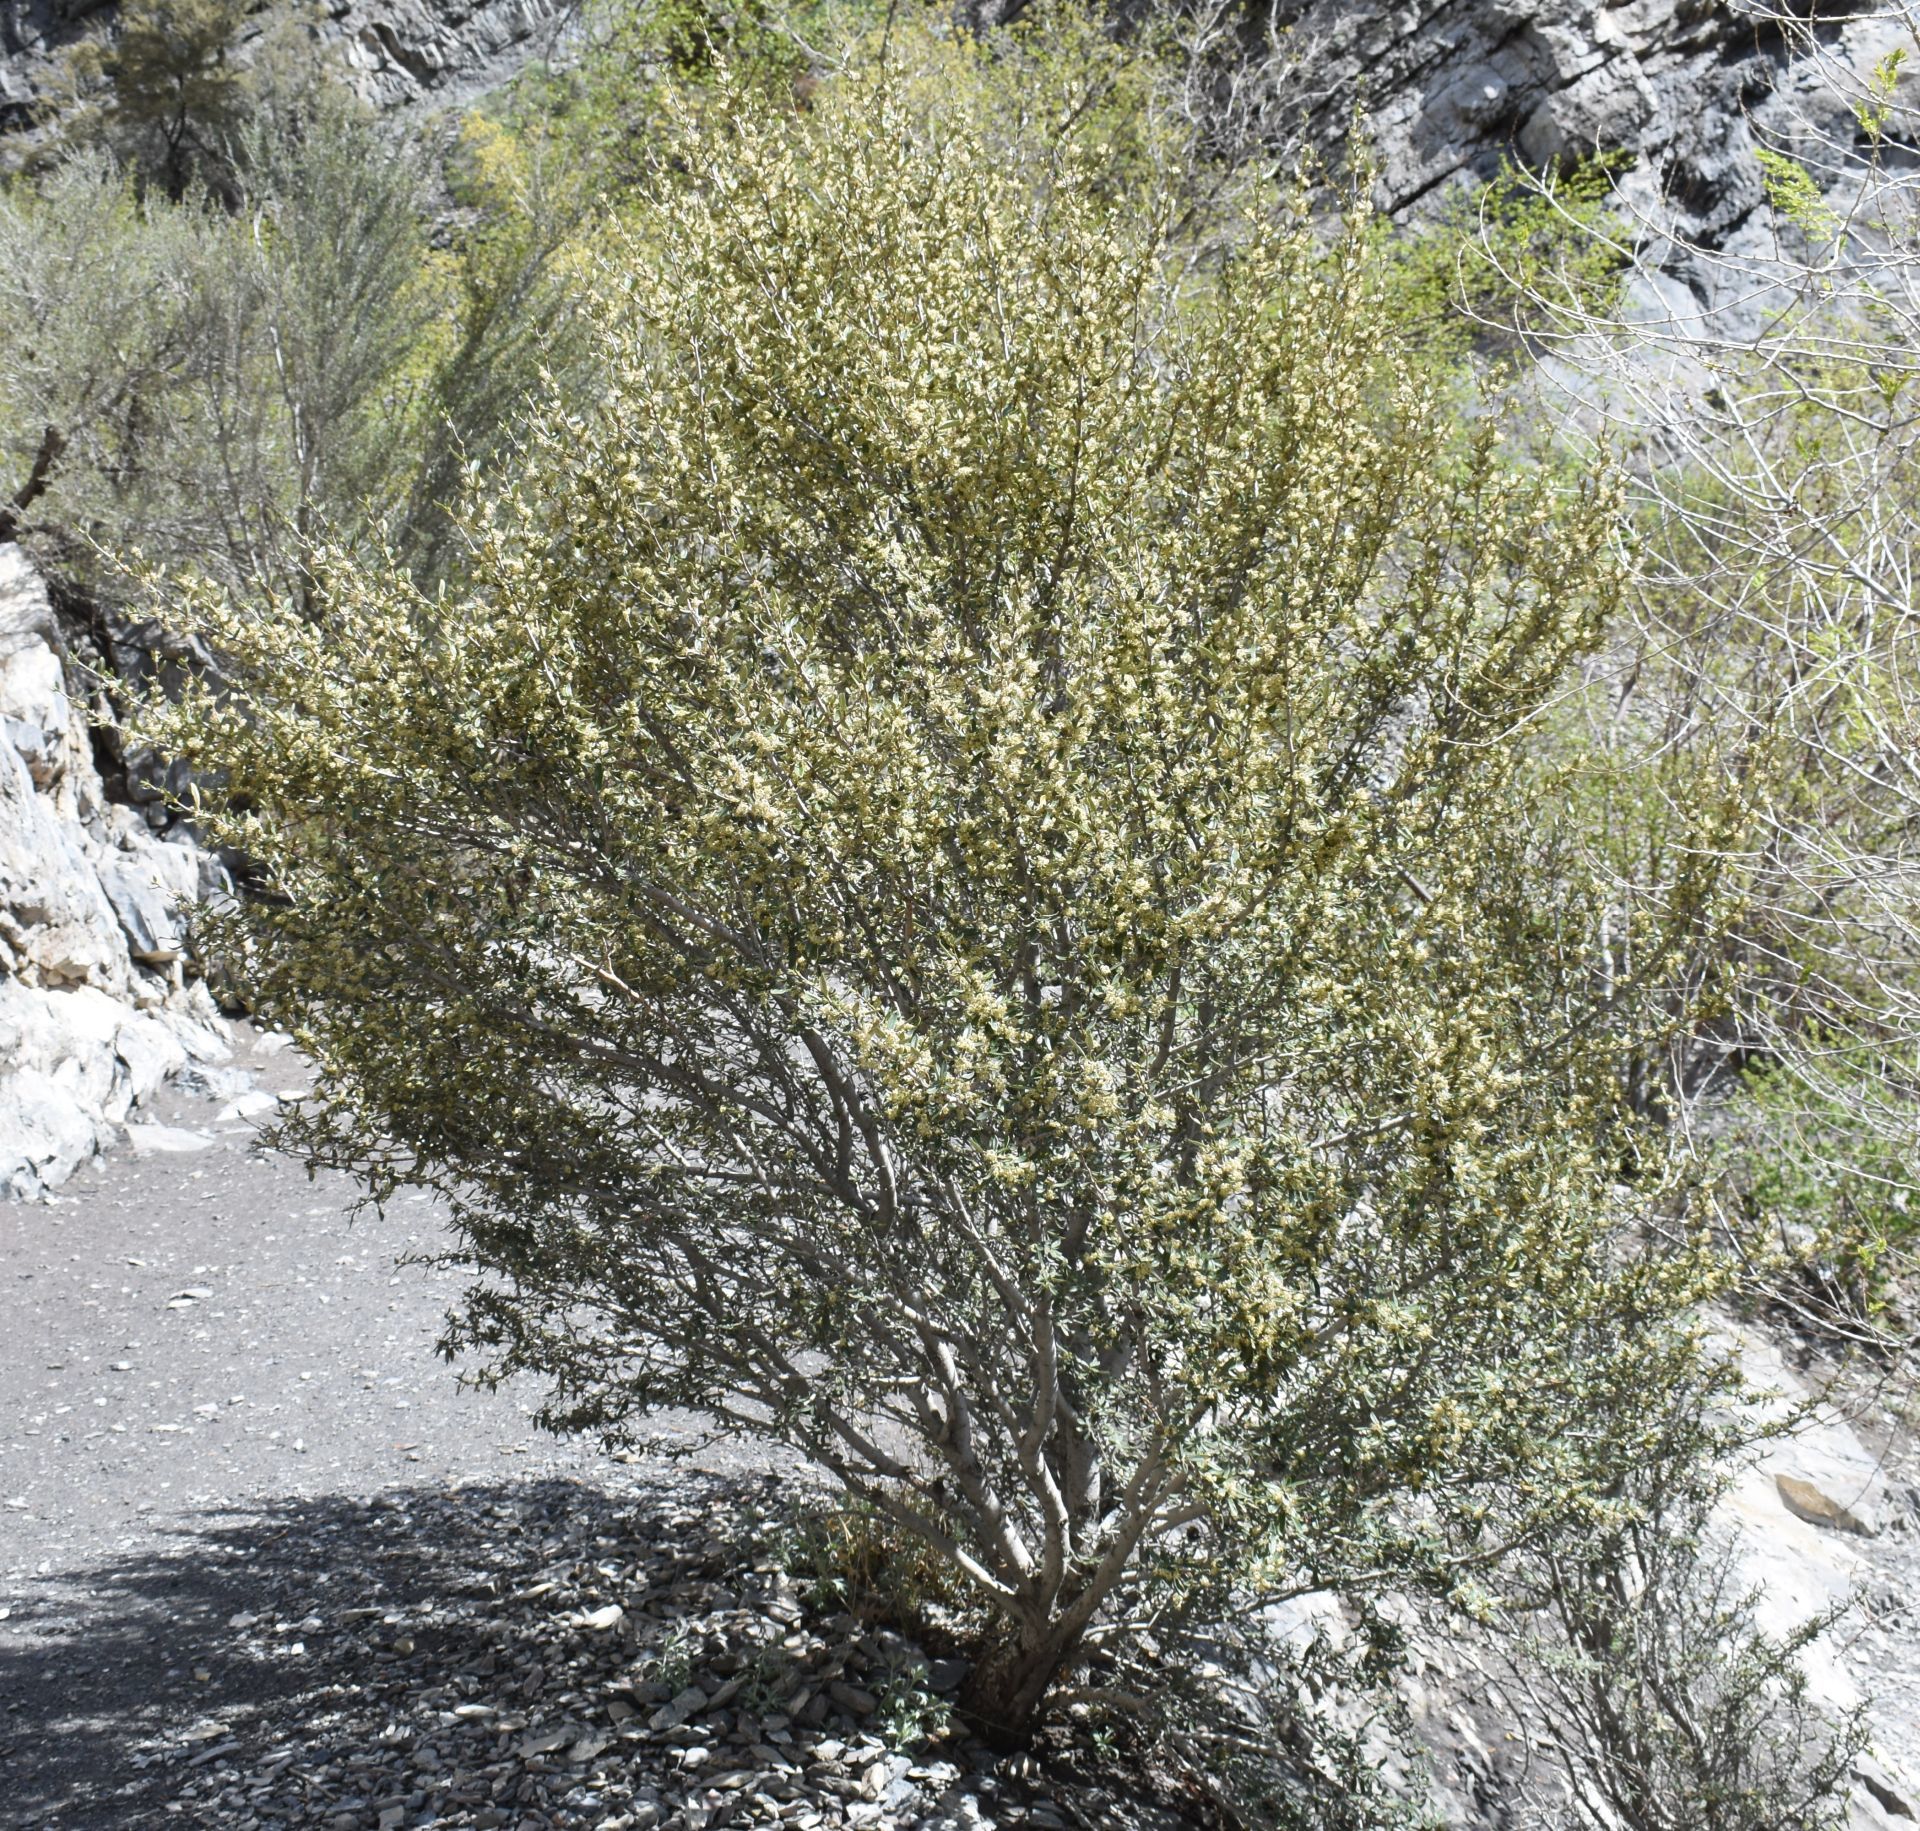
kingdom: Plantae
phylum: Tracheophyta
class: Magnoliopsida
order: Rosales
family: Rosaceae
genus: Cercocarpus
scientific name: Cercocarpus ledifolius
